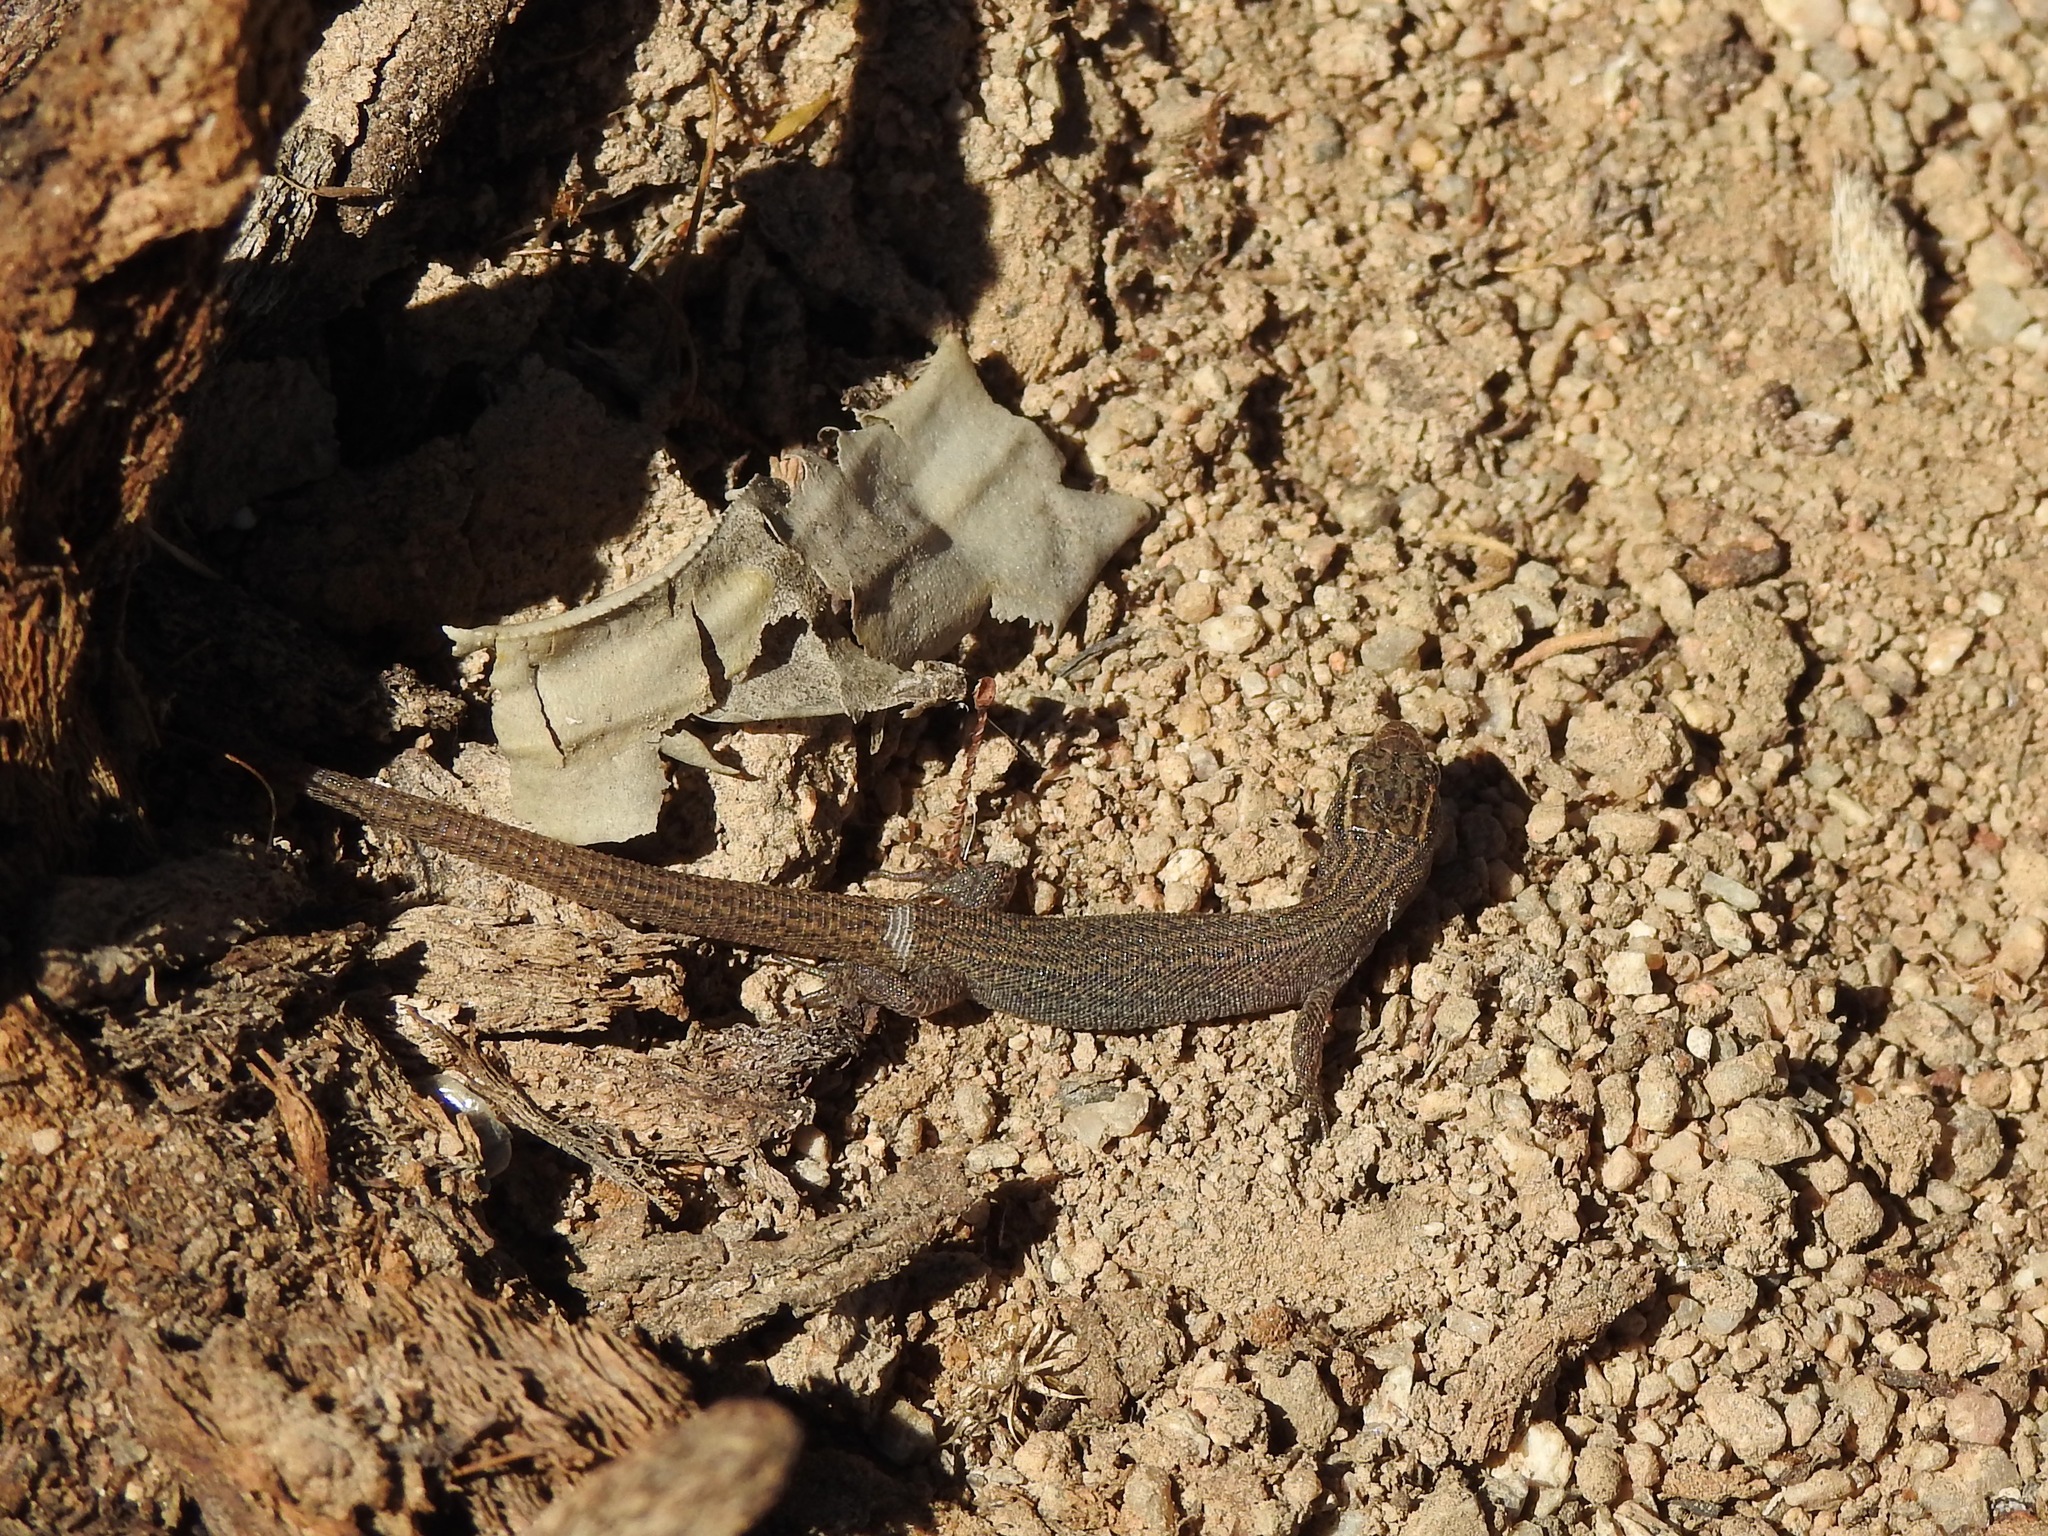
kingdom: Animalia
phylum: Chordata
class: Squamata
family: Xantusiidae
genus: Xantusia
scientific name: Xantusia vigilis
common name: Desert night lizard
